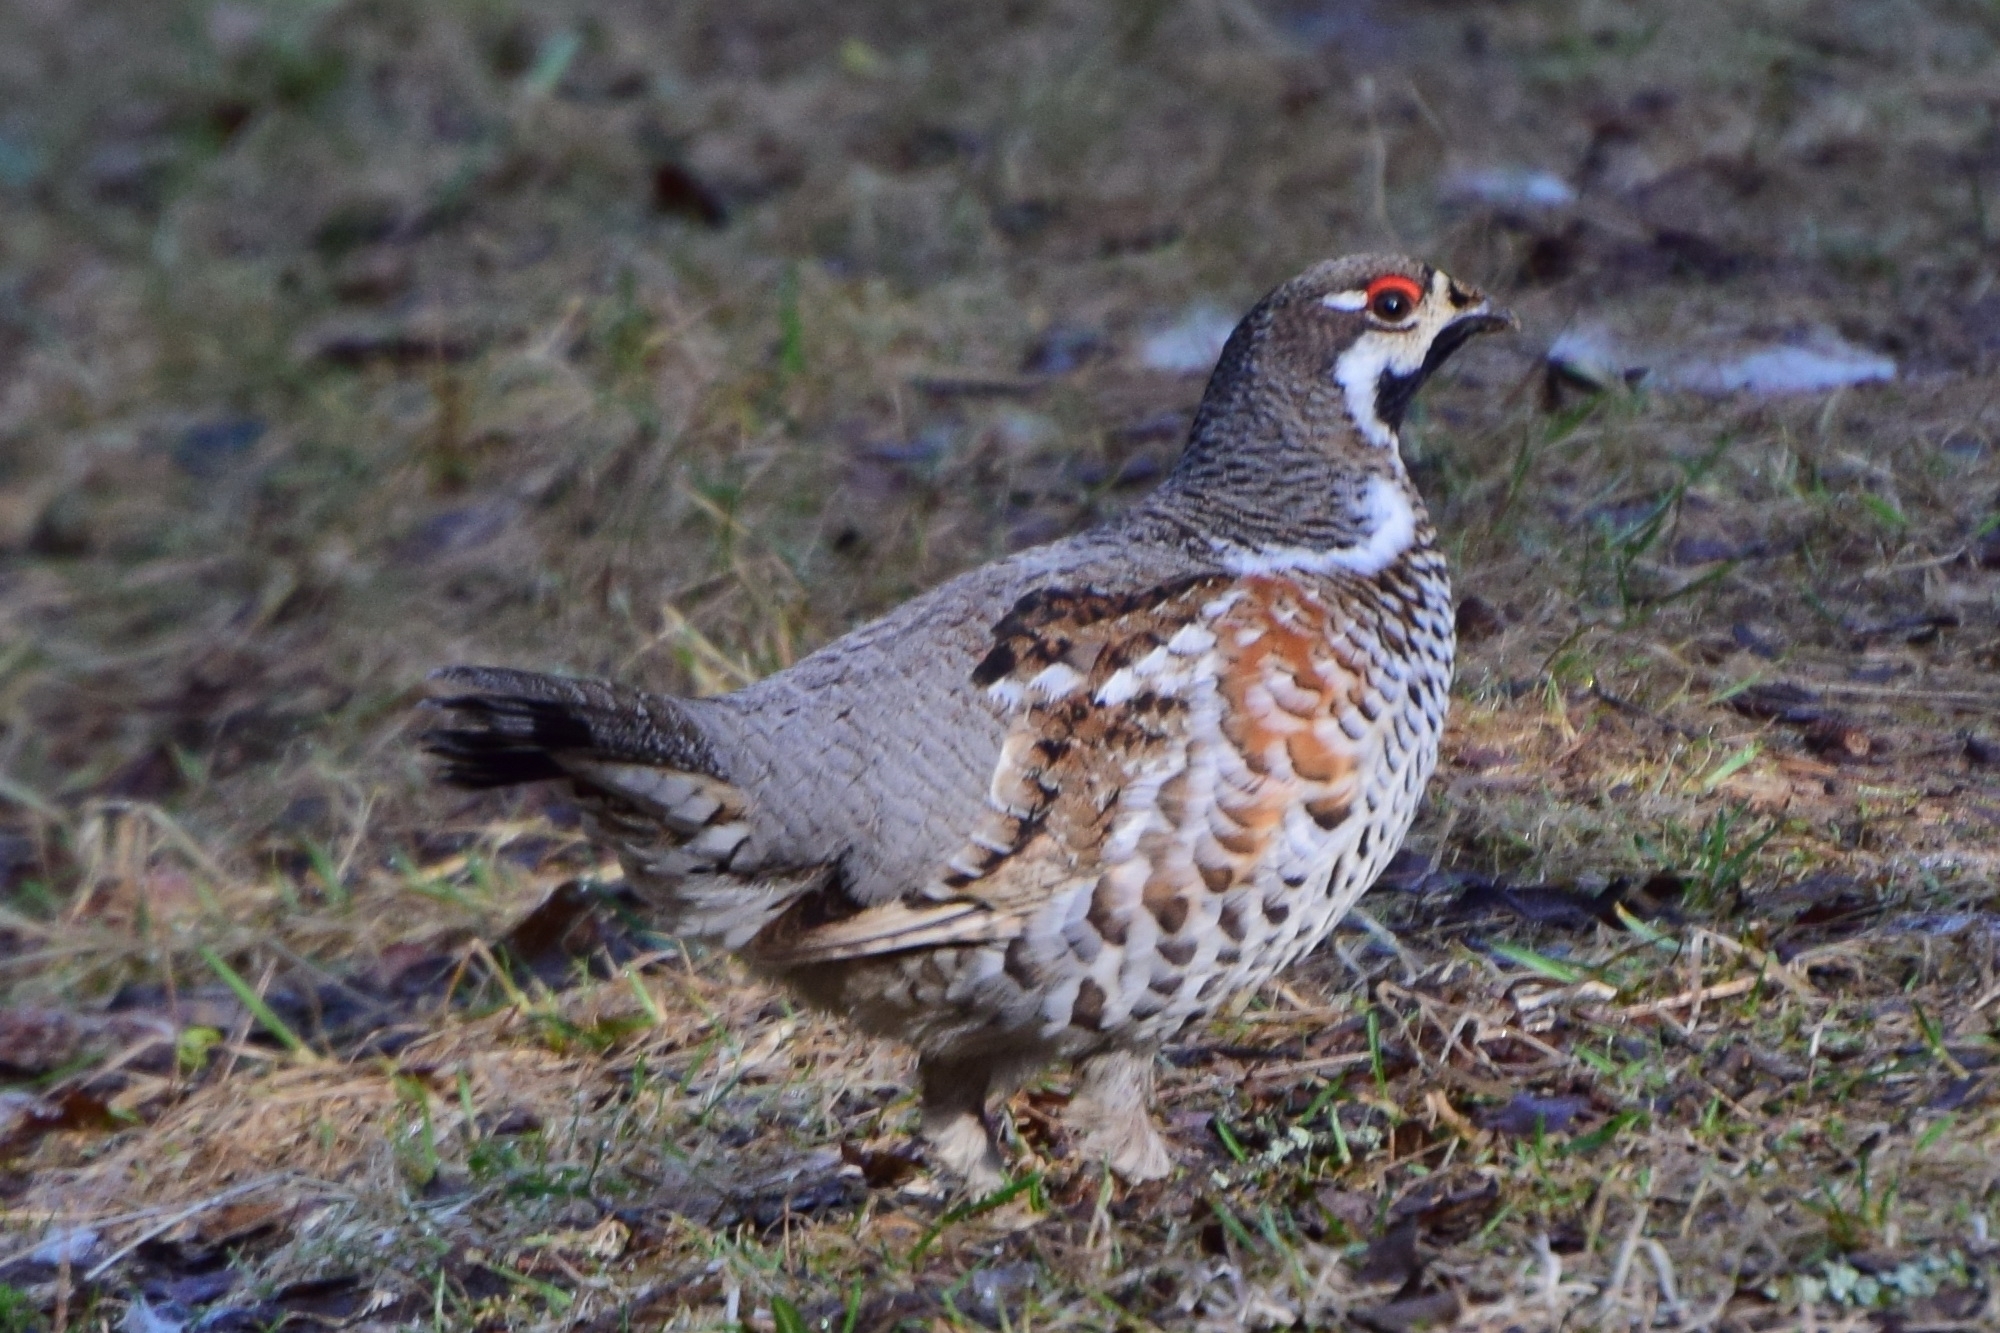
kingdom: Animalia
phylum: Chordata
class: Aves
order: Galliformes
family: Phasianidae
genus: Tetrastes
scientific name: Tetrastes bonasia
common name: Hazel grouse
